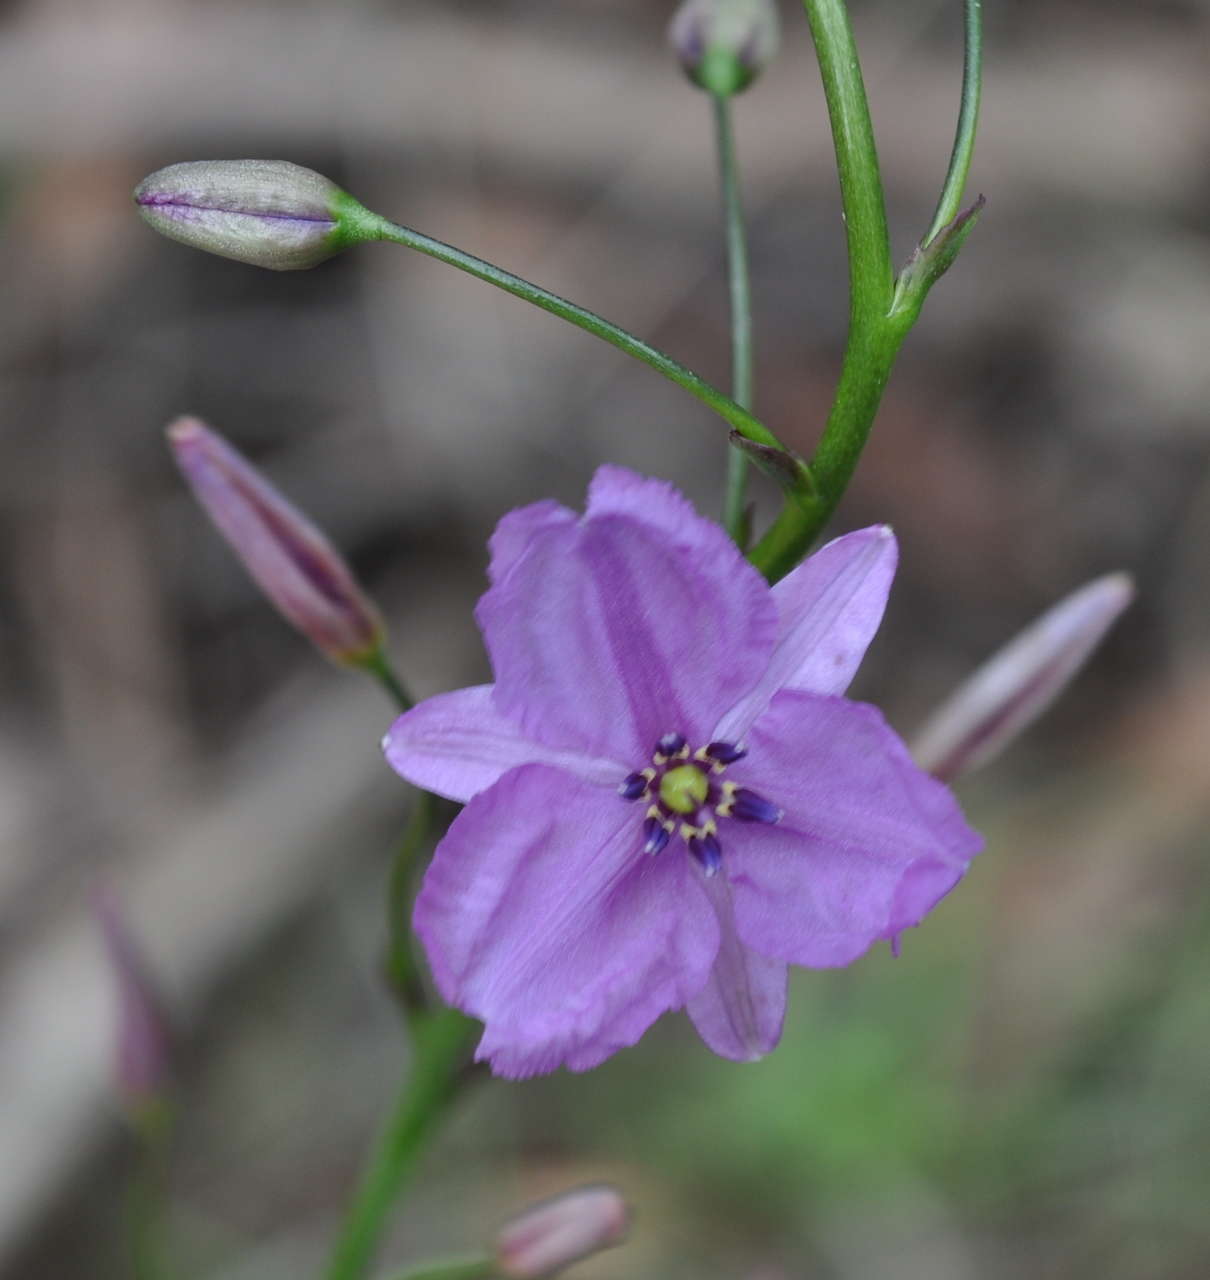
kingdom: Plantae
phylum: Tracheophyta
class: Liliopsida
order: Asparagales
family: Asparagaceae
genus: Arthropodium
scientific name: Arthropodium strictum
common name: Chocolate-lily
